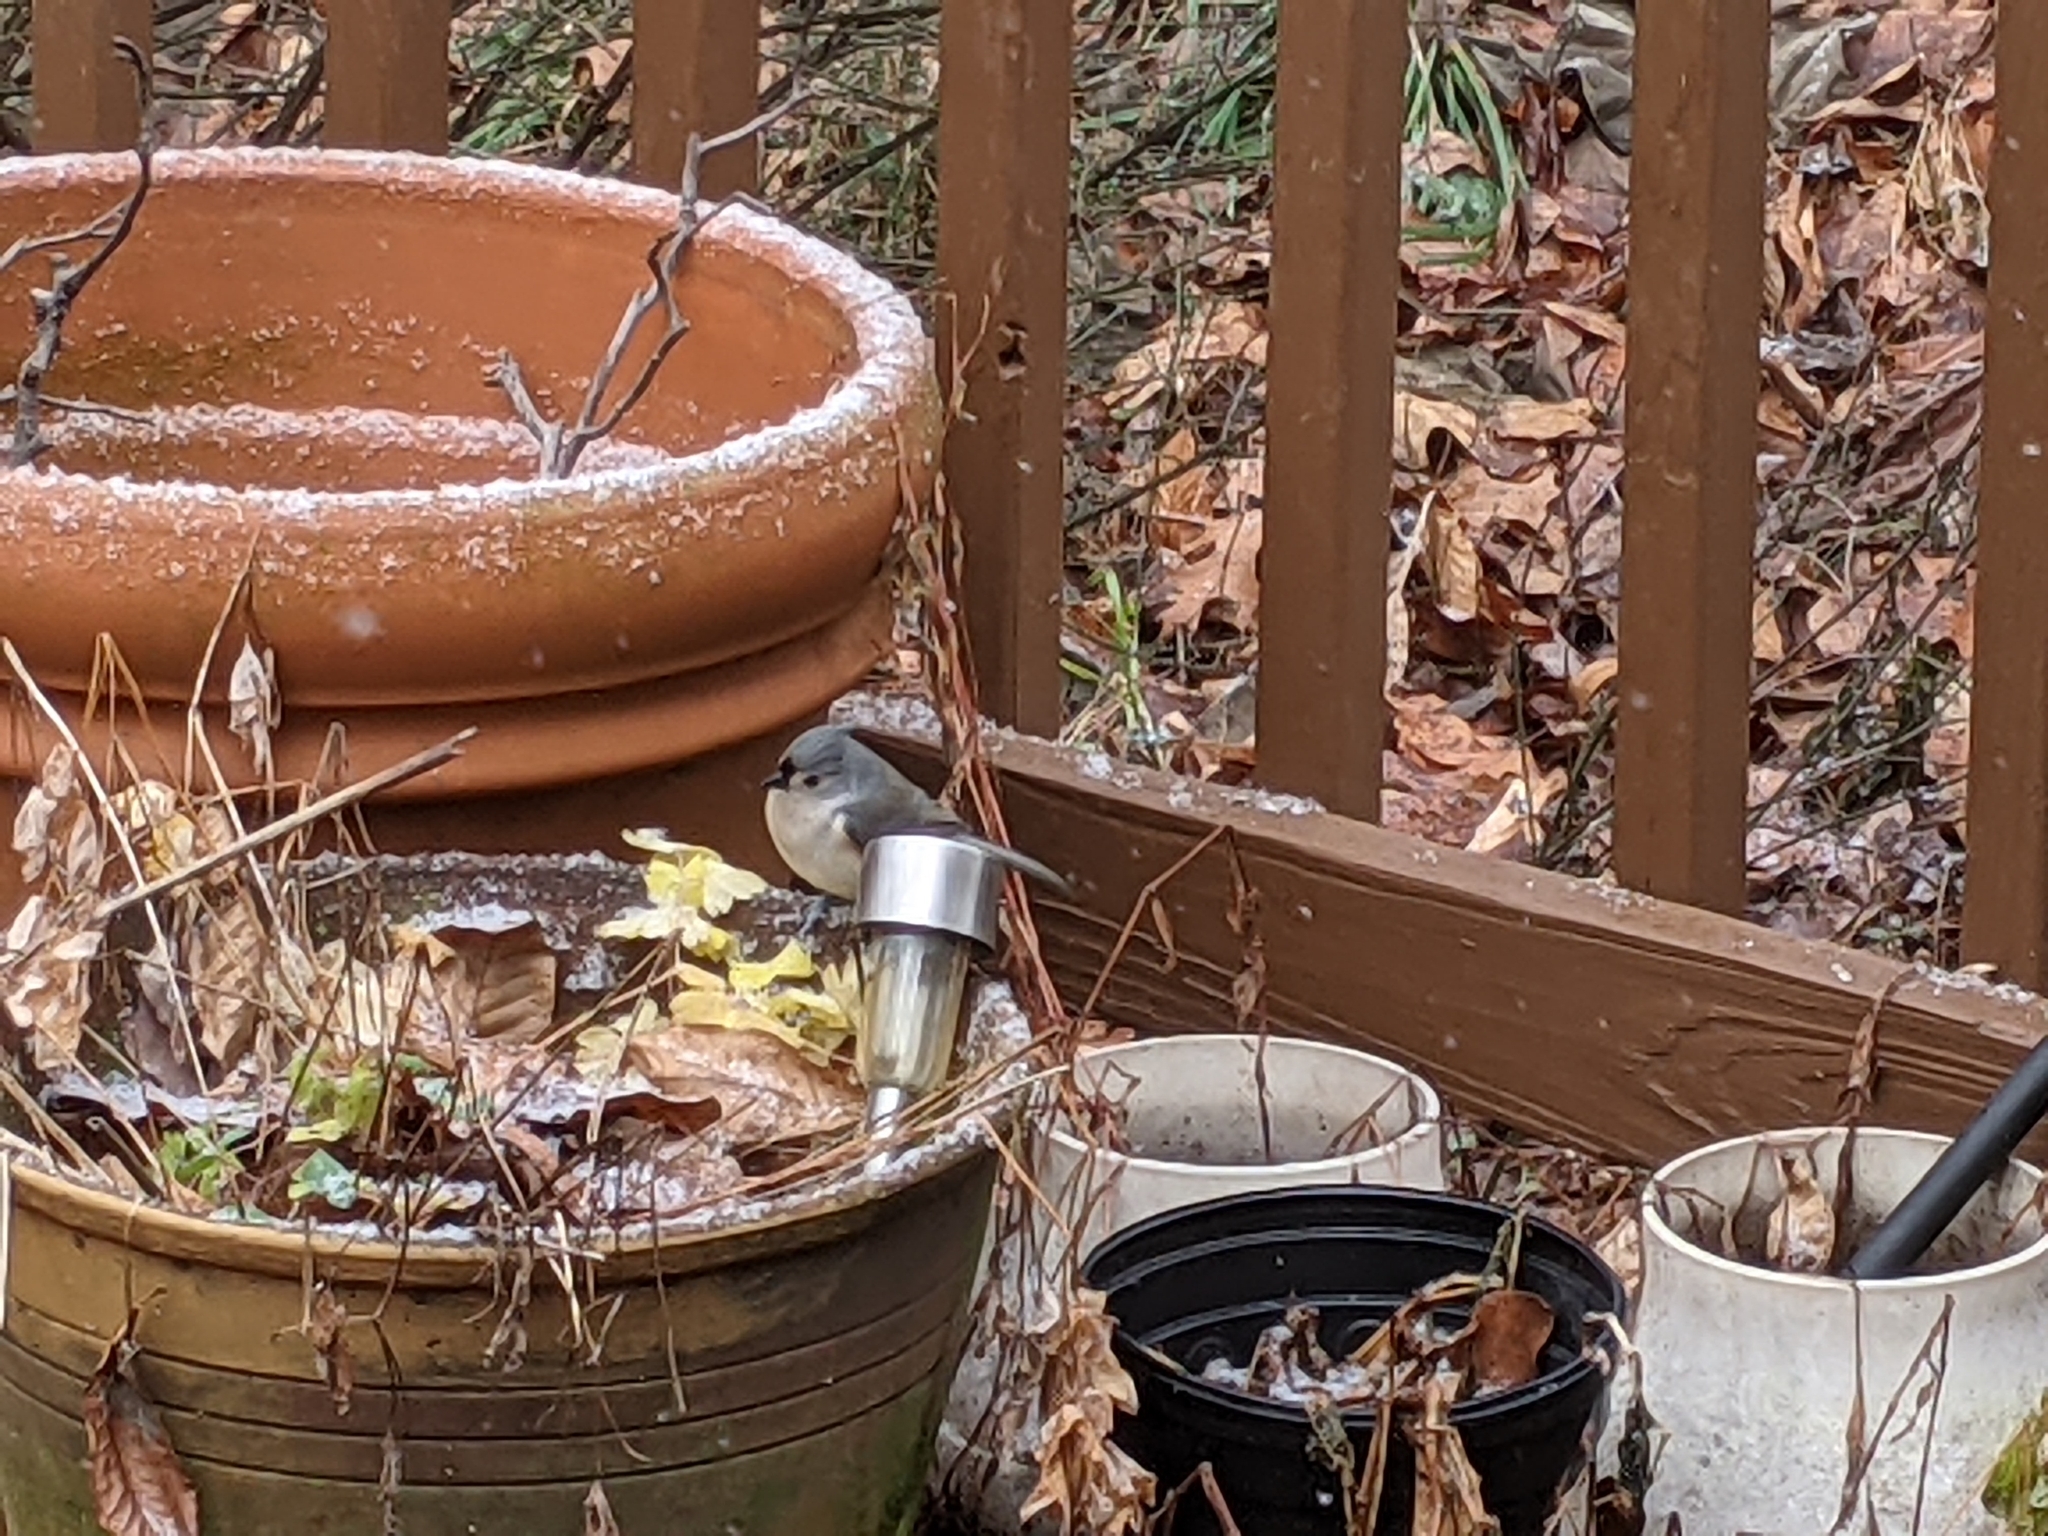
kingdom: Animalia
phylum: Chordata
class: Aves
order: Passeriformes
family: Paridae
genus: Baeolophus
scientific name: Baeolophus bicolor
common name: Tufted titmouse
